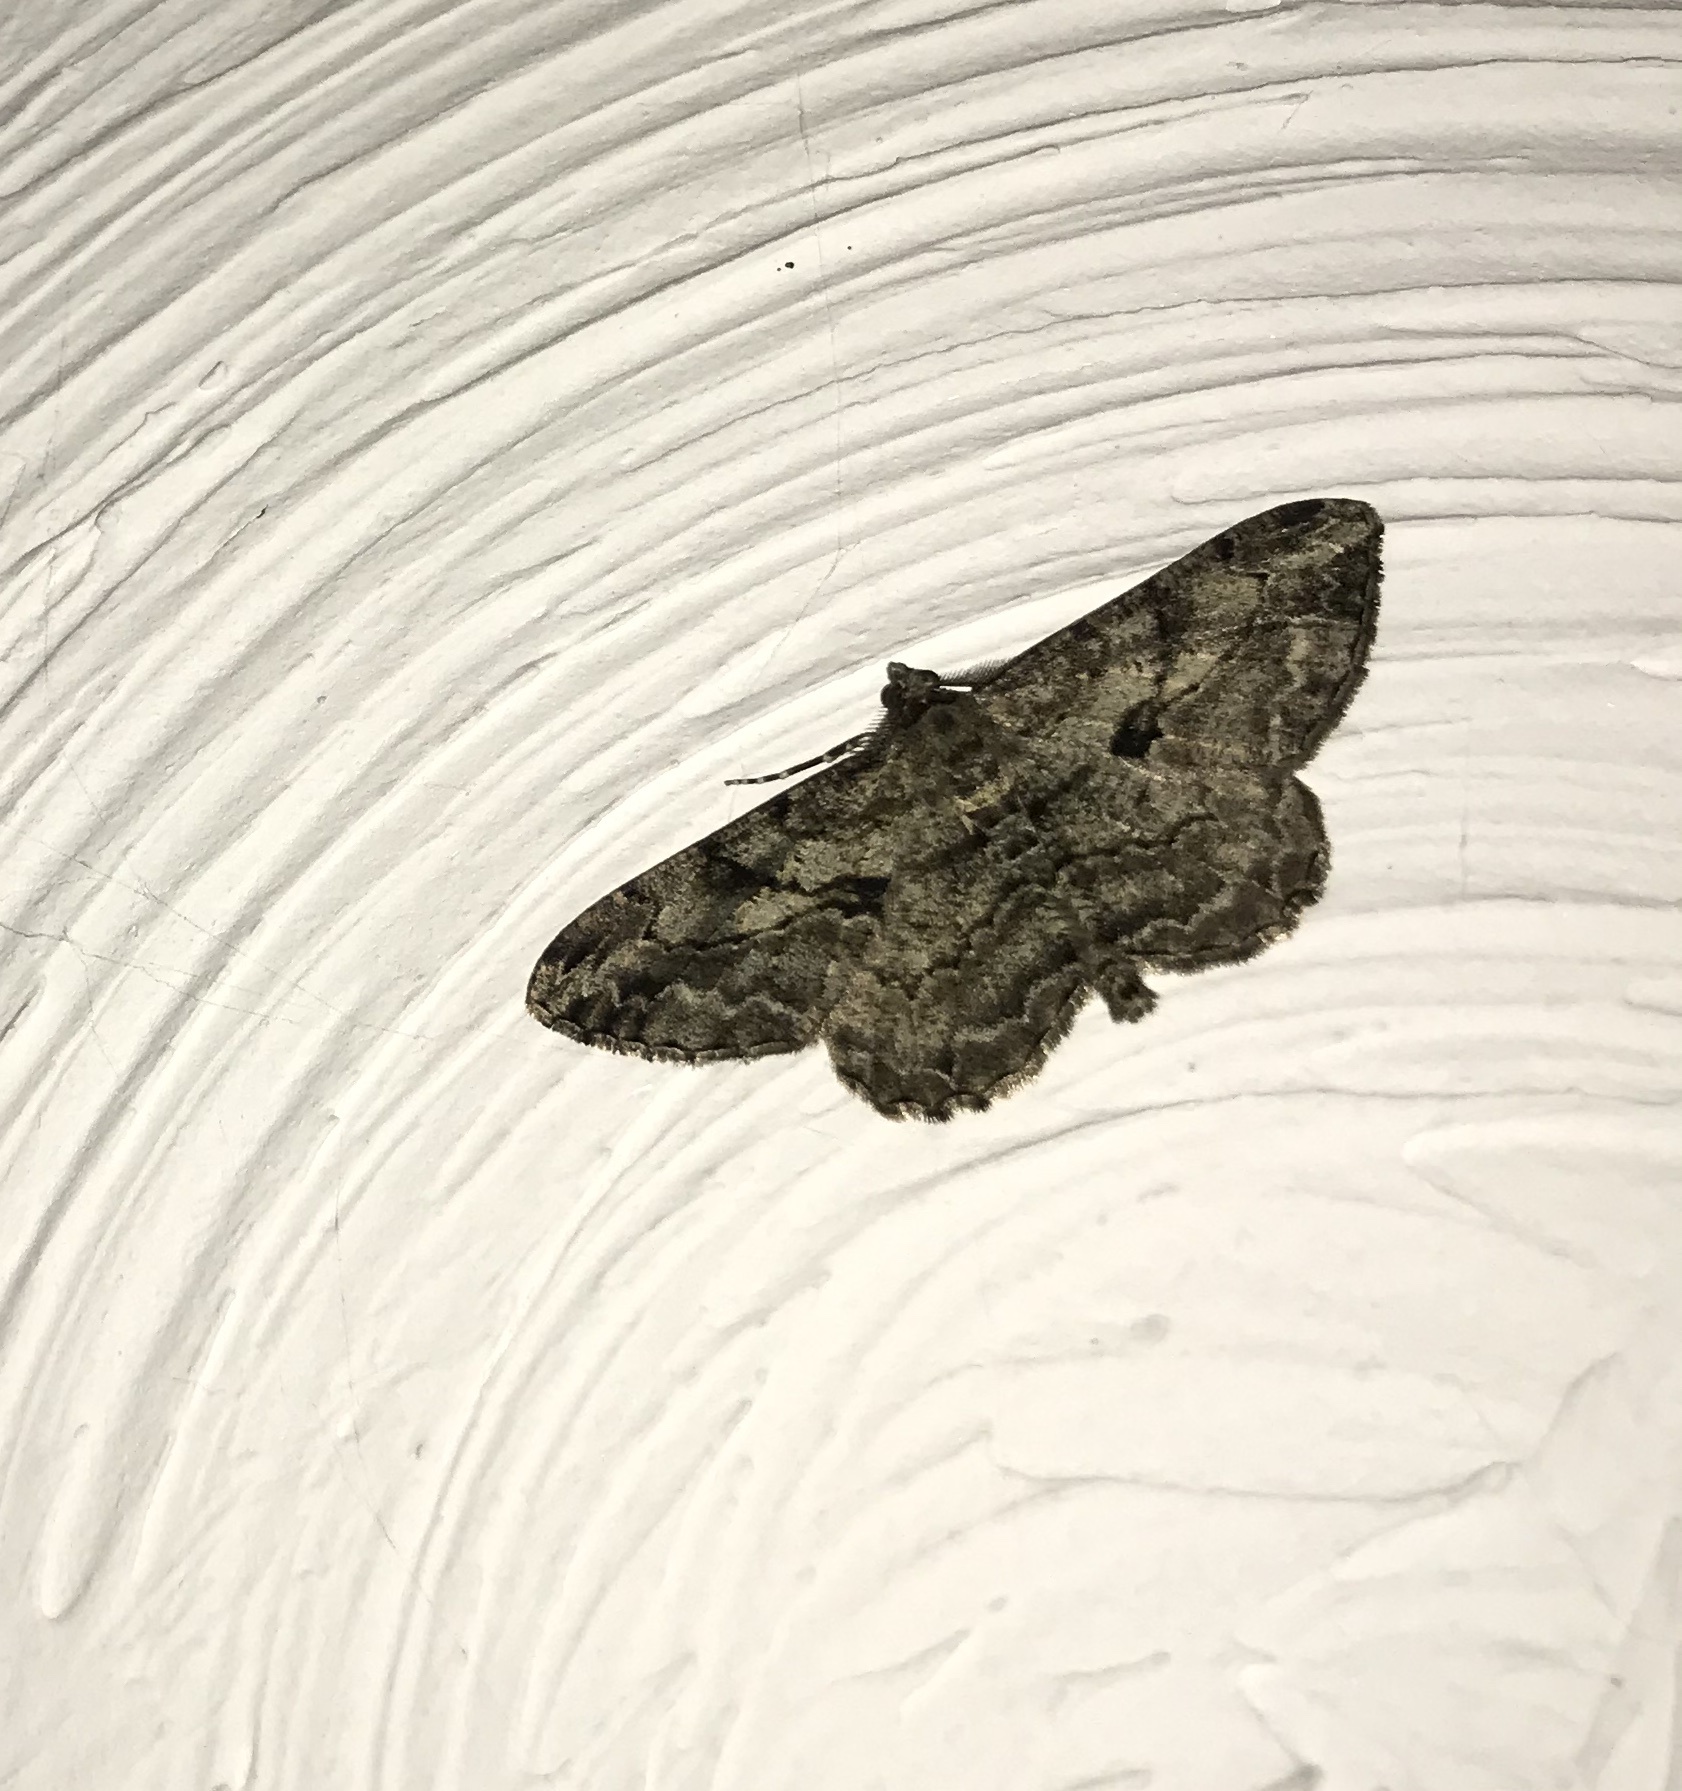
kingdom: Animalia
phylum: Arthropoda
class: Insecta
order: Lepidoptera
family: Geometridae
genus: Peribatodes
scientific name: Peribatodes rhomboidaria
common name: Willow beauty
